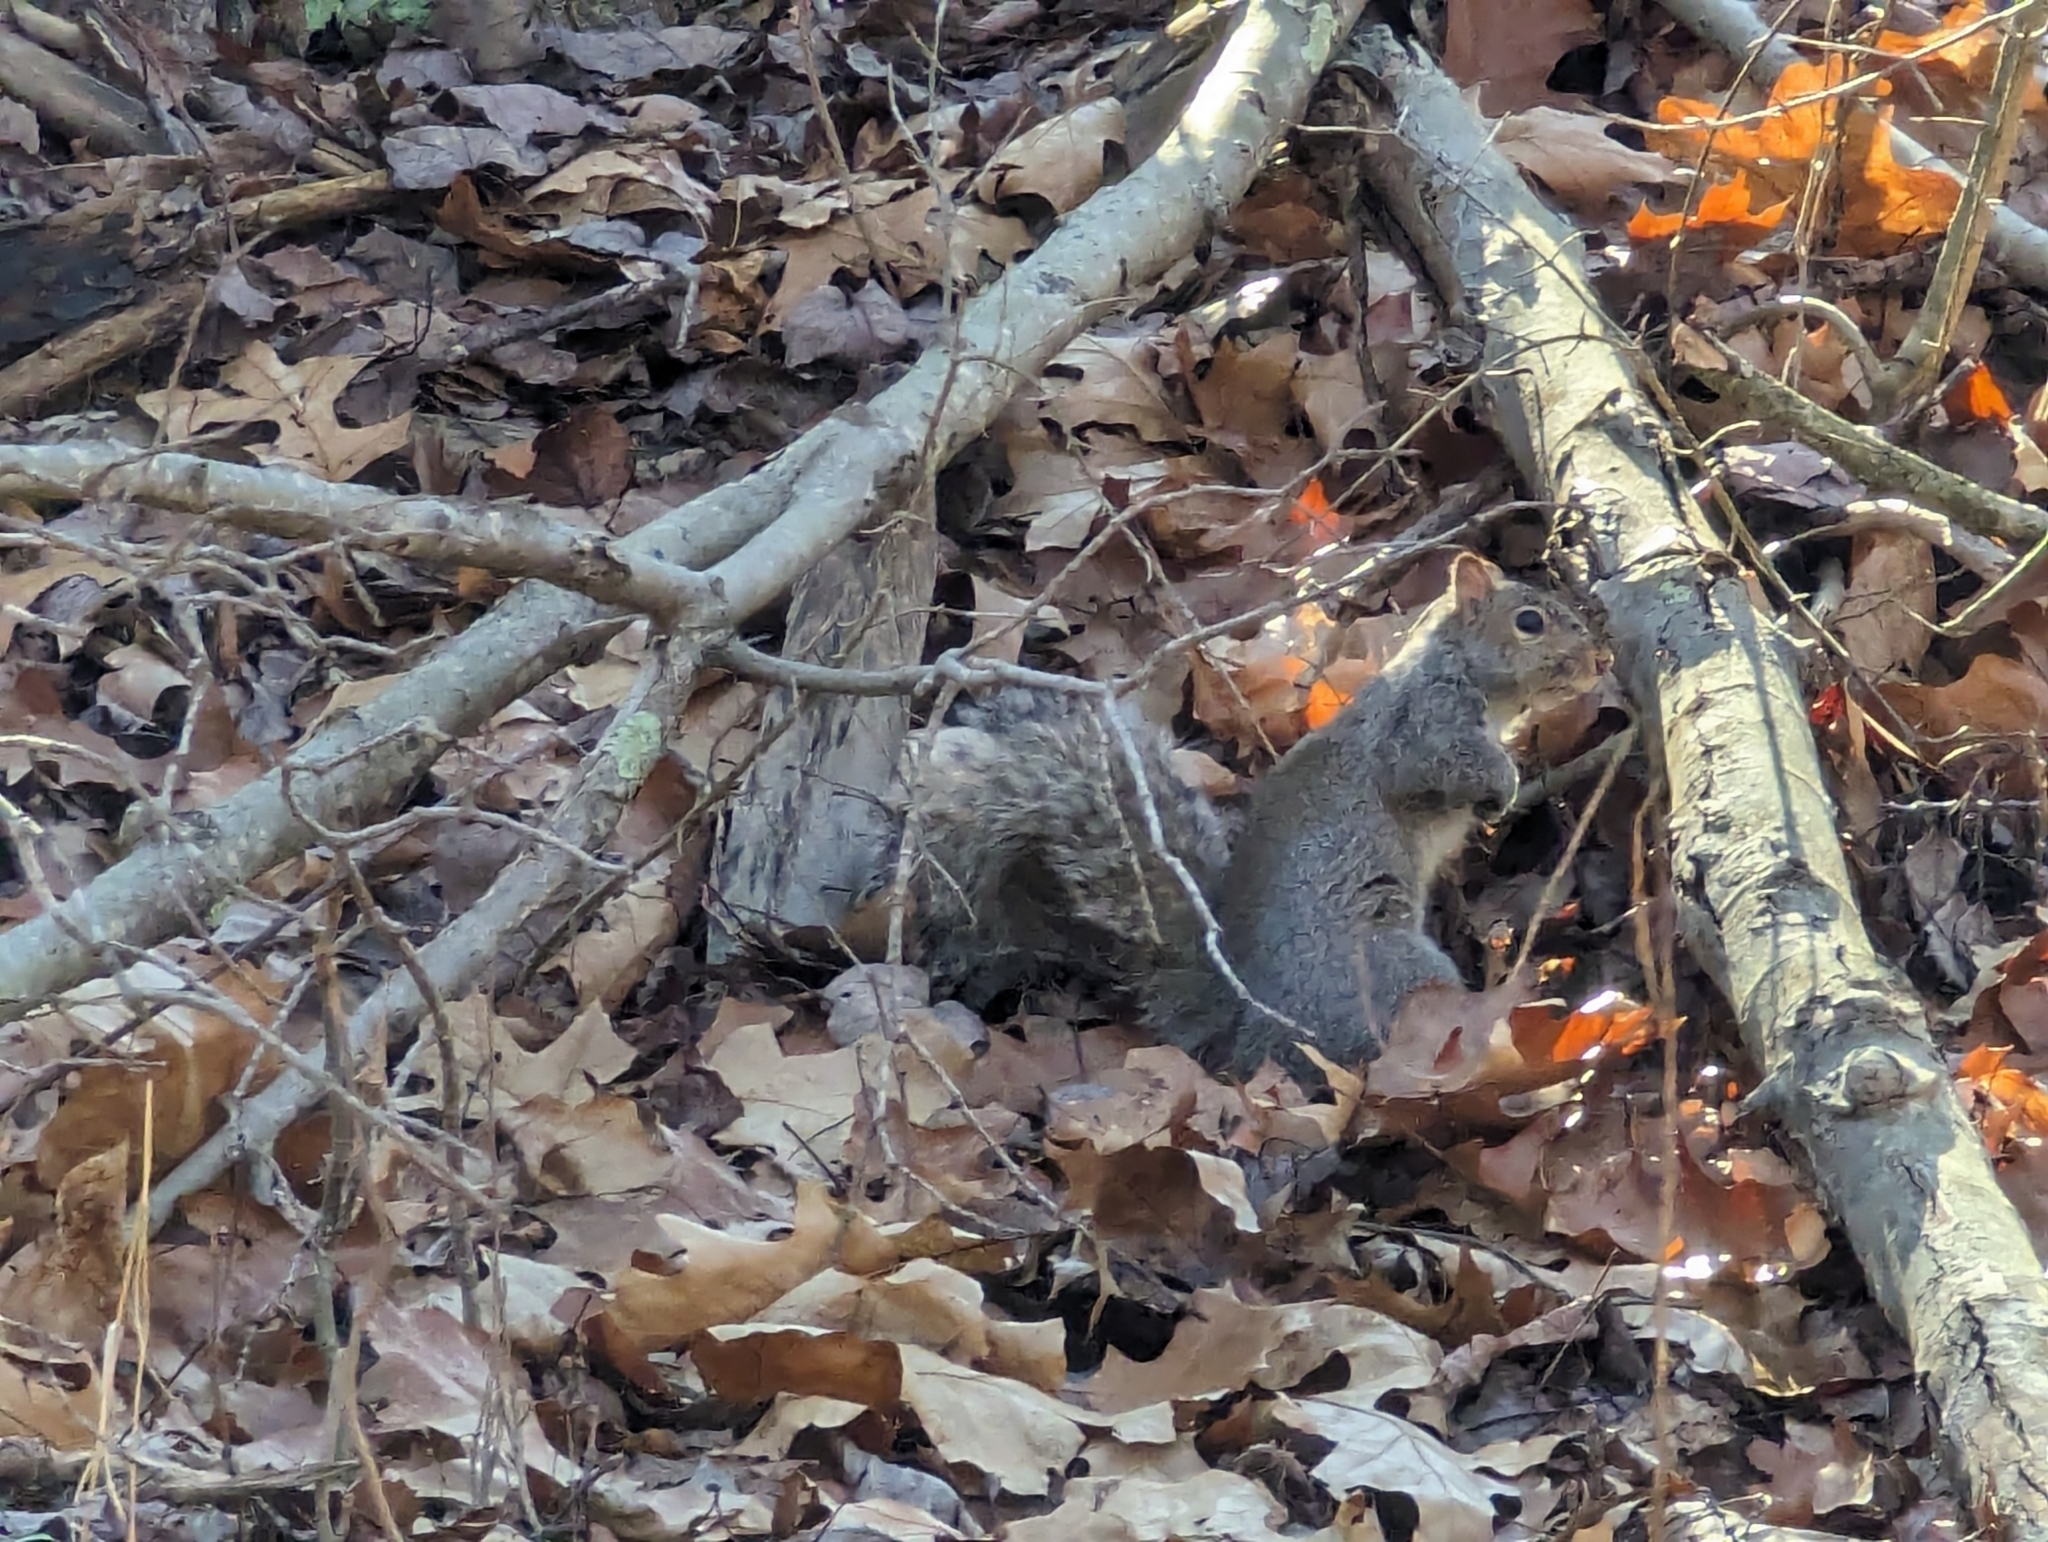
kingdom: Animalia
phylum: Chordata
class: Mammalia
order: Rodentia
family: Sciuridae
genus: Sciurus
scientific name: Sciurus carolinensis
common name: Eastern gray squirrel
